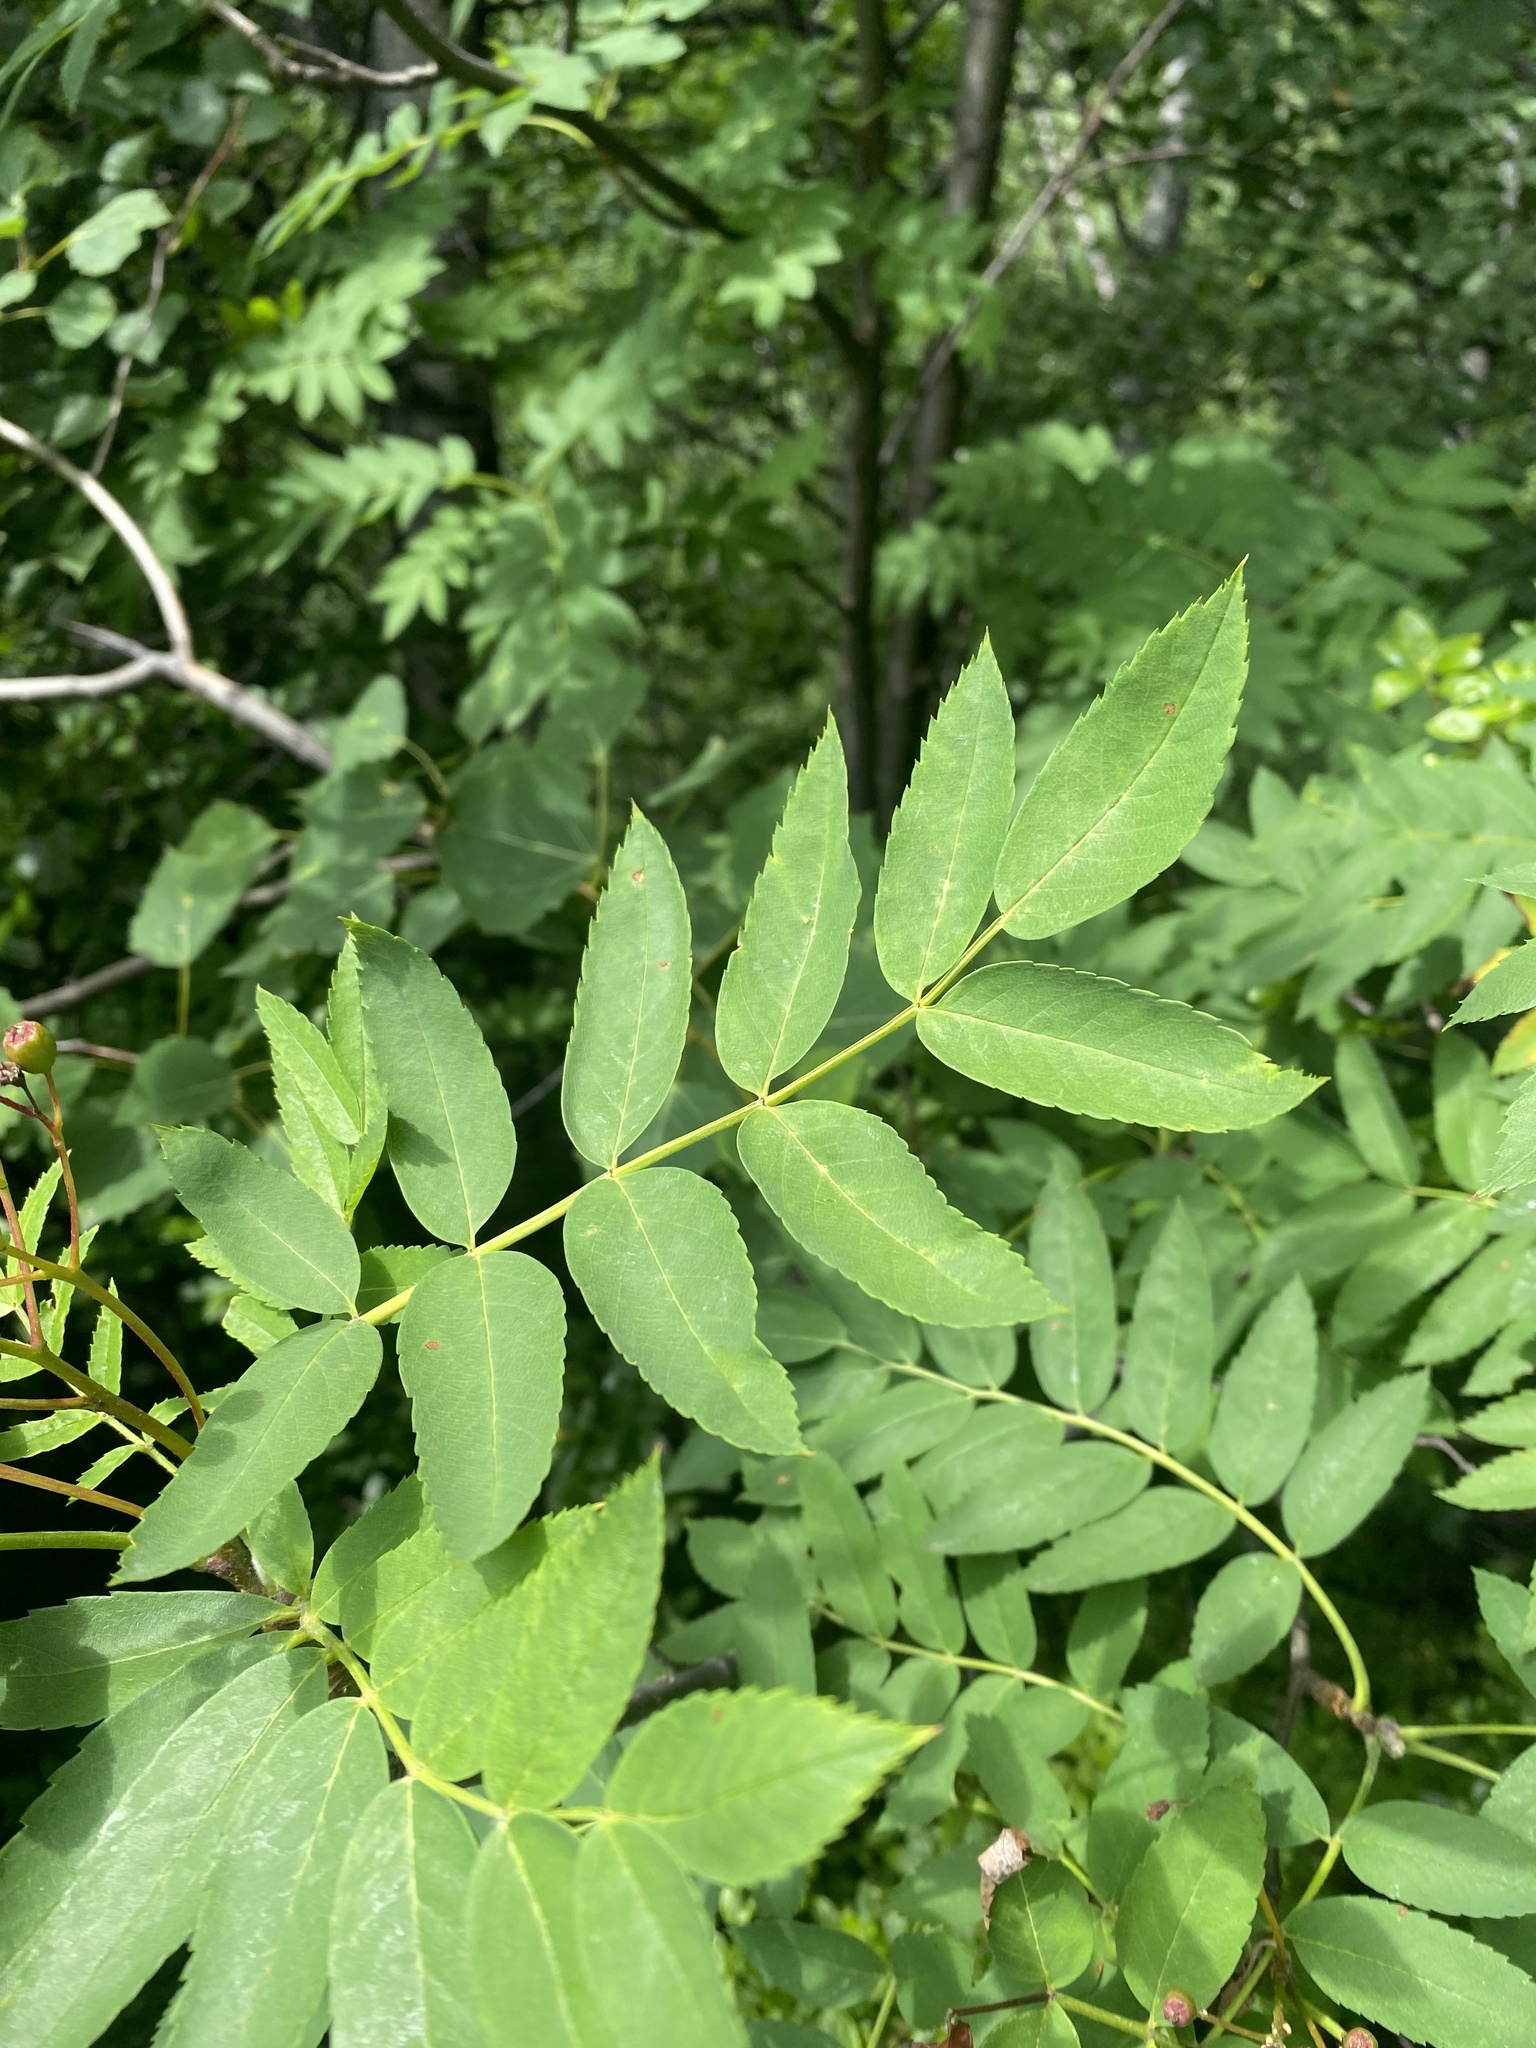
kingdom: Plantae
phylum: Tracheophyta
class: Magnoliopsida
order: Rosales
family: Rosaceae
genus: Sorbus
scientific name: Sorbus aucuparia
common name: Rowan
